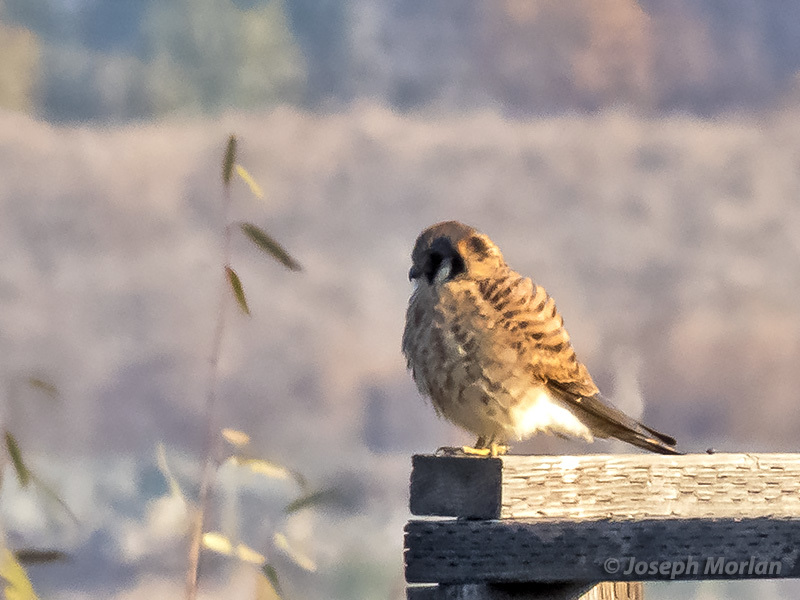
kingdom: Animalia
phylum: Chordata
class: Aves
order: Falconiformes
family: Falconidae
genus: Falco
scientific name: Falco sparverius
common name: American kestrel
